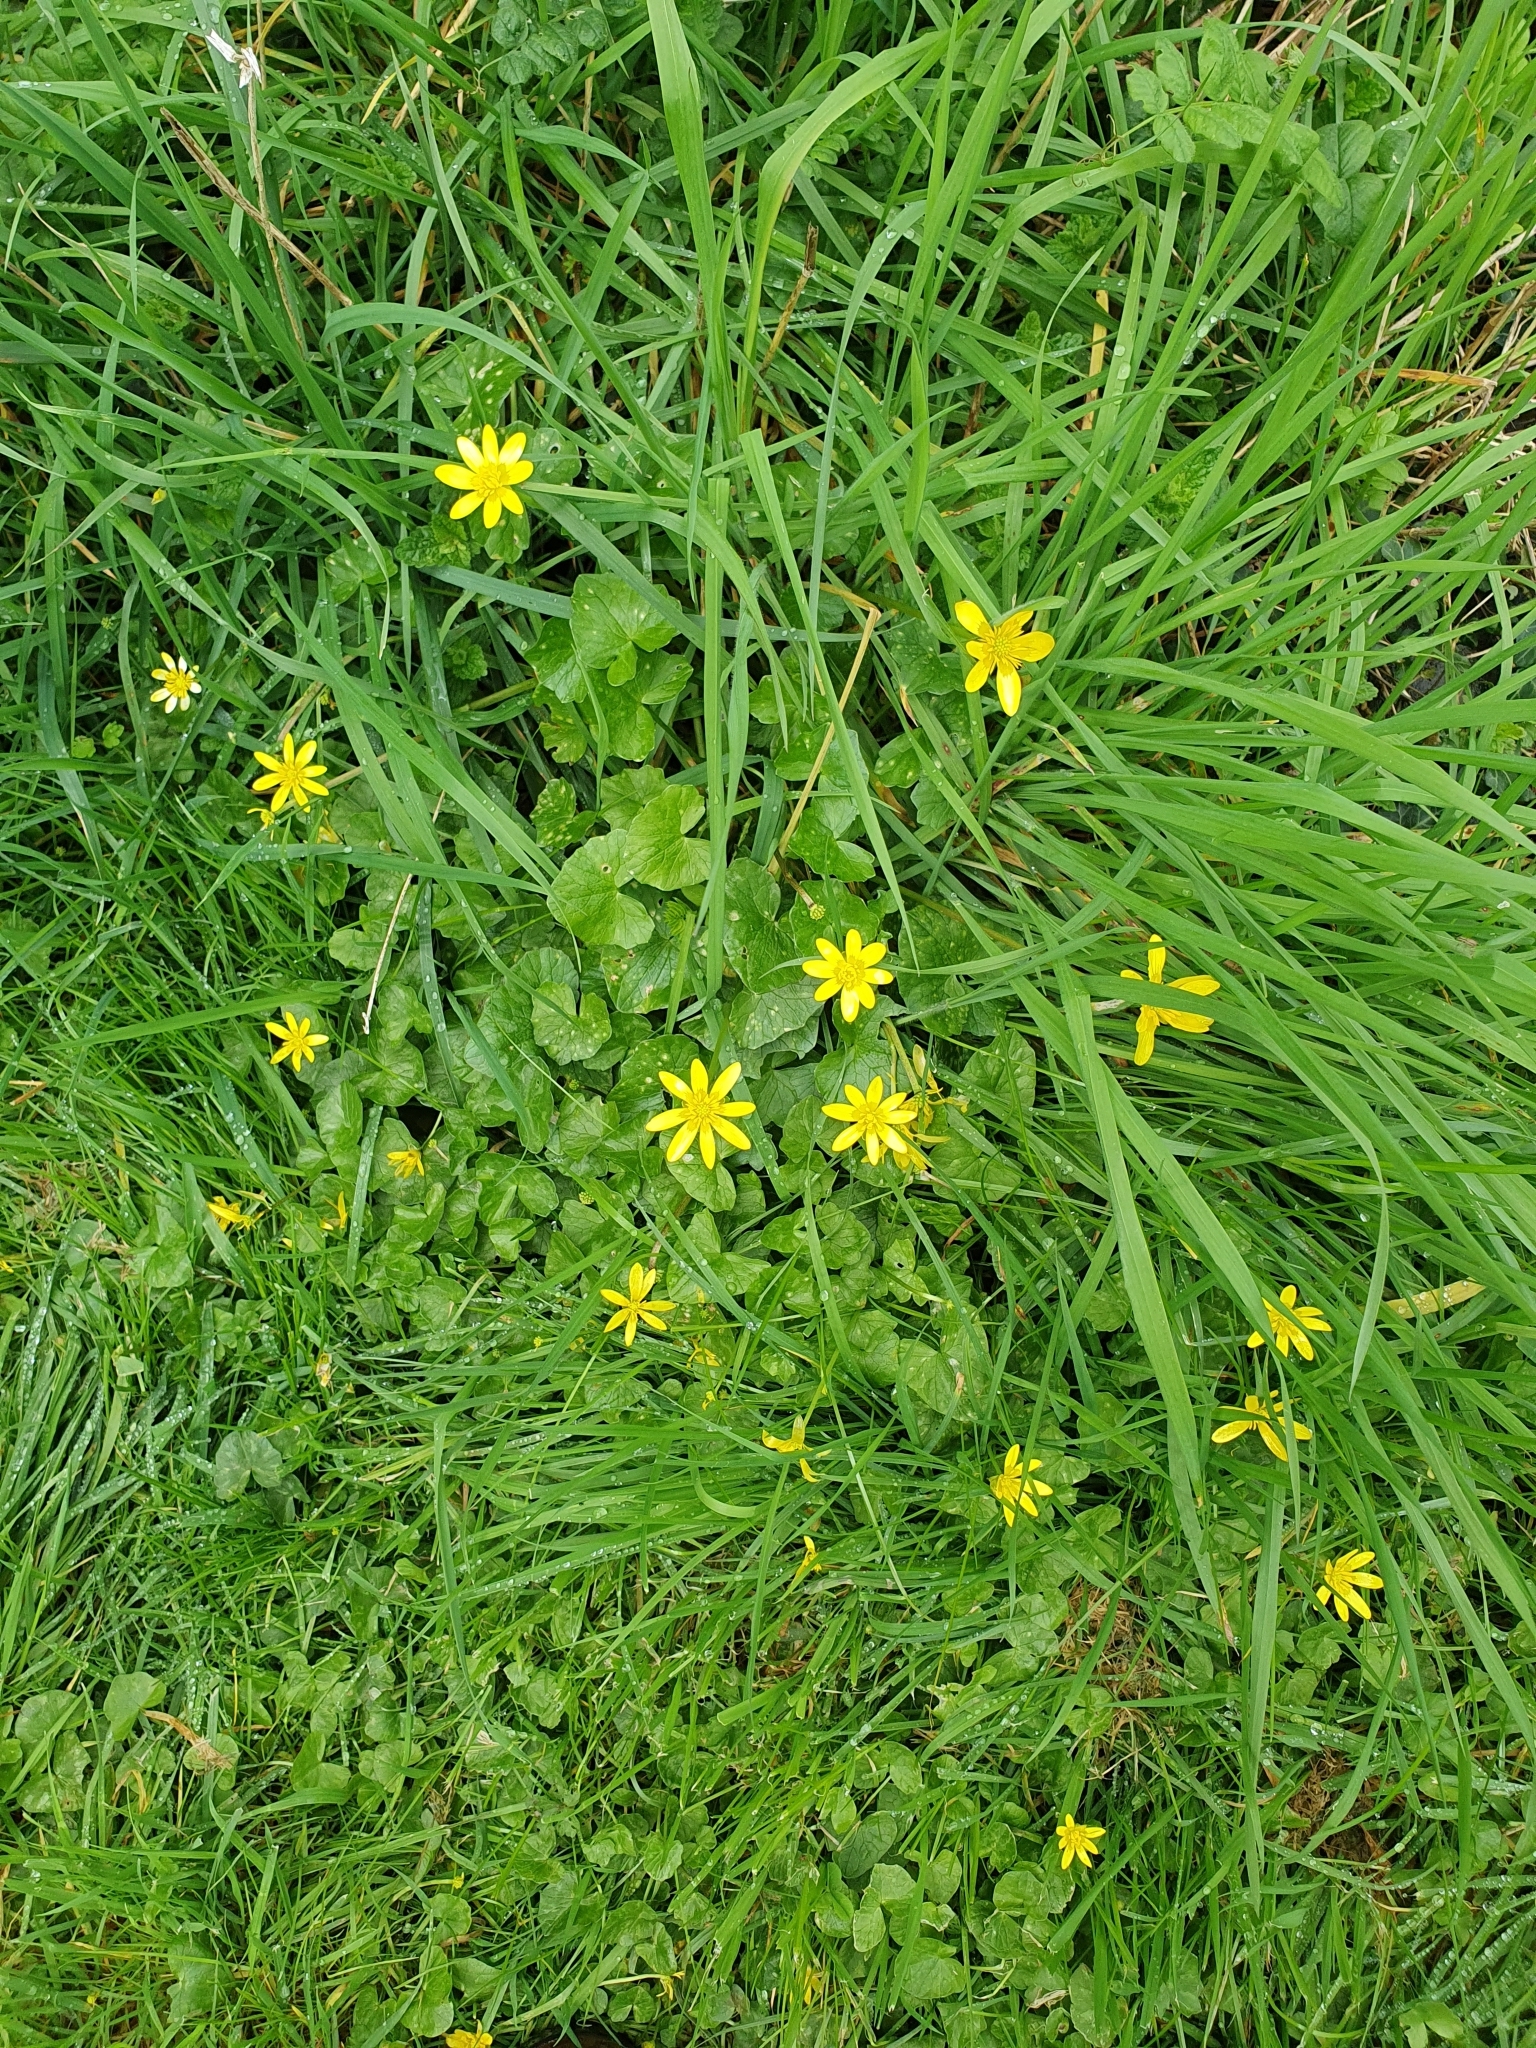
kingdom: Plantae
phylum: Tracheophyta
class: Magnoliopsida
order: Ranunculales
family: Ranunculaceae
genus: Ficaria
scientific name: Ficaria verna
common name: Lesser celandine
